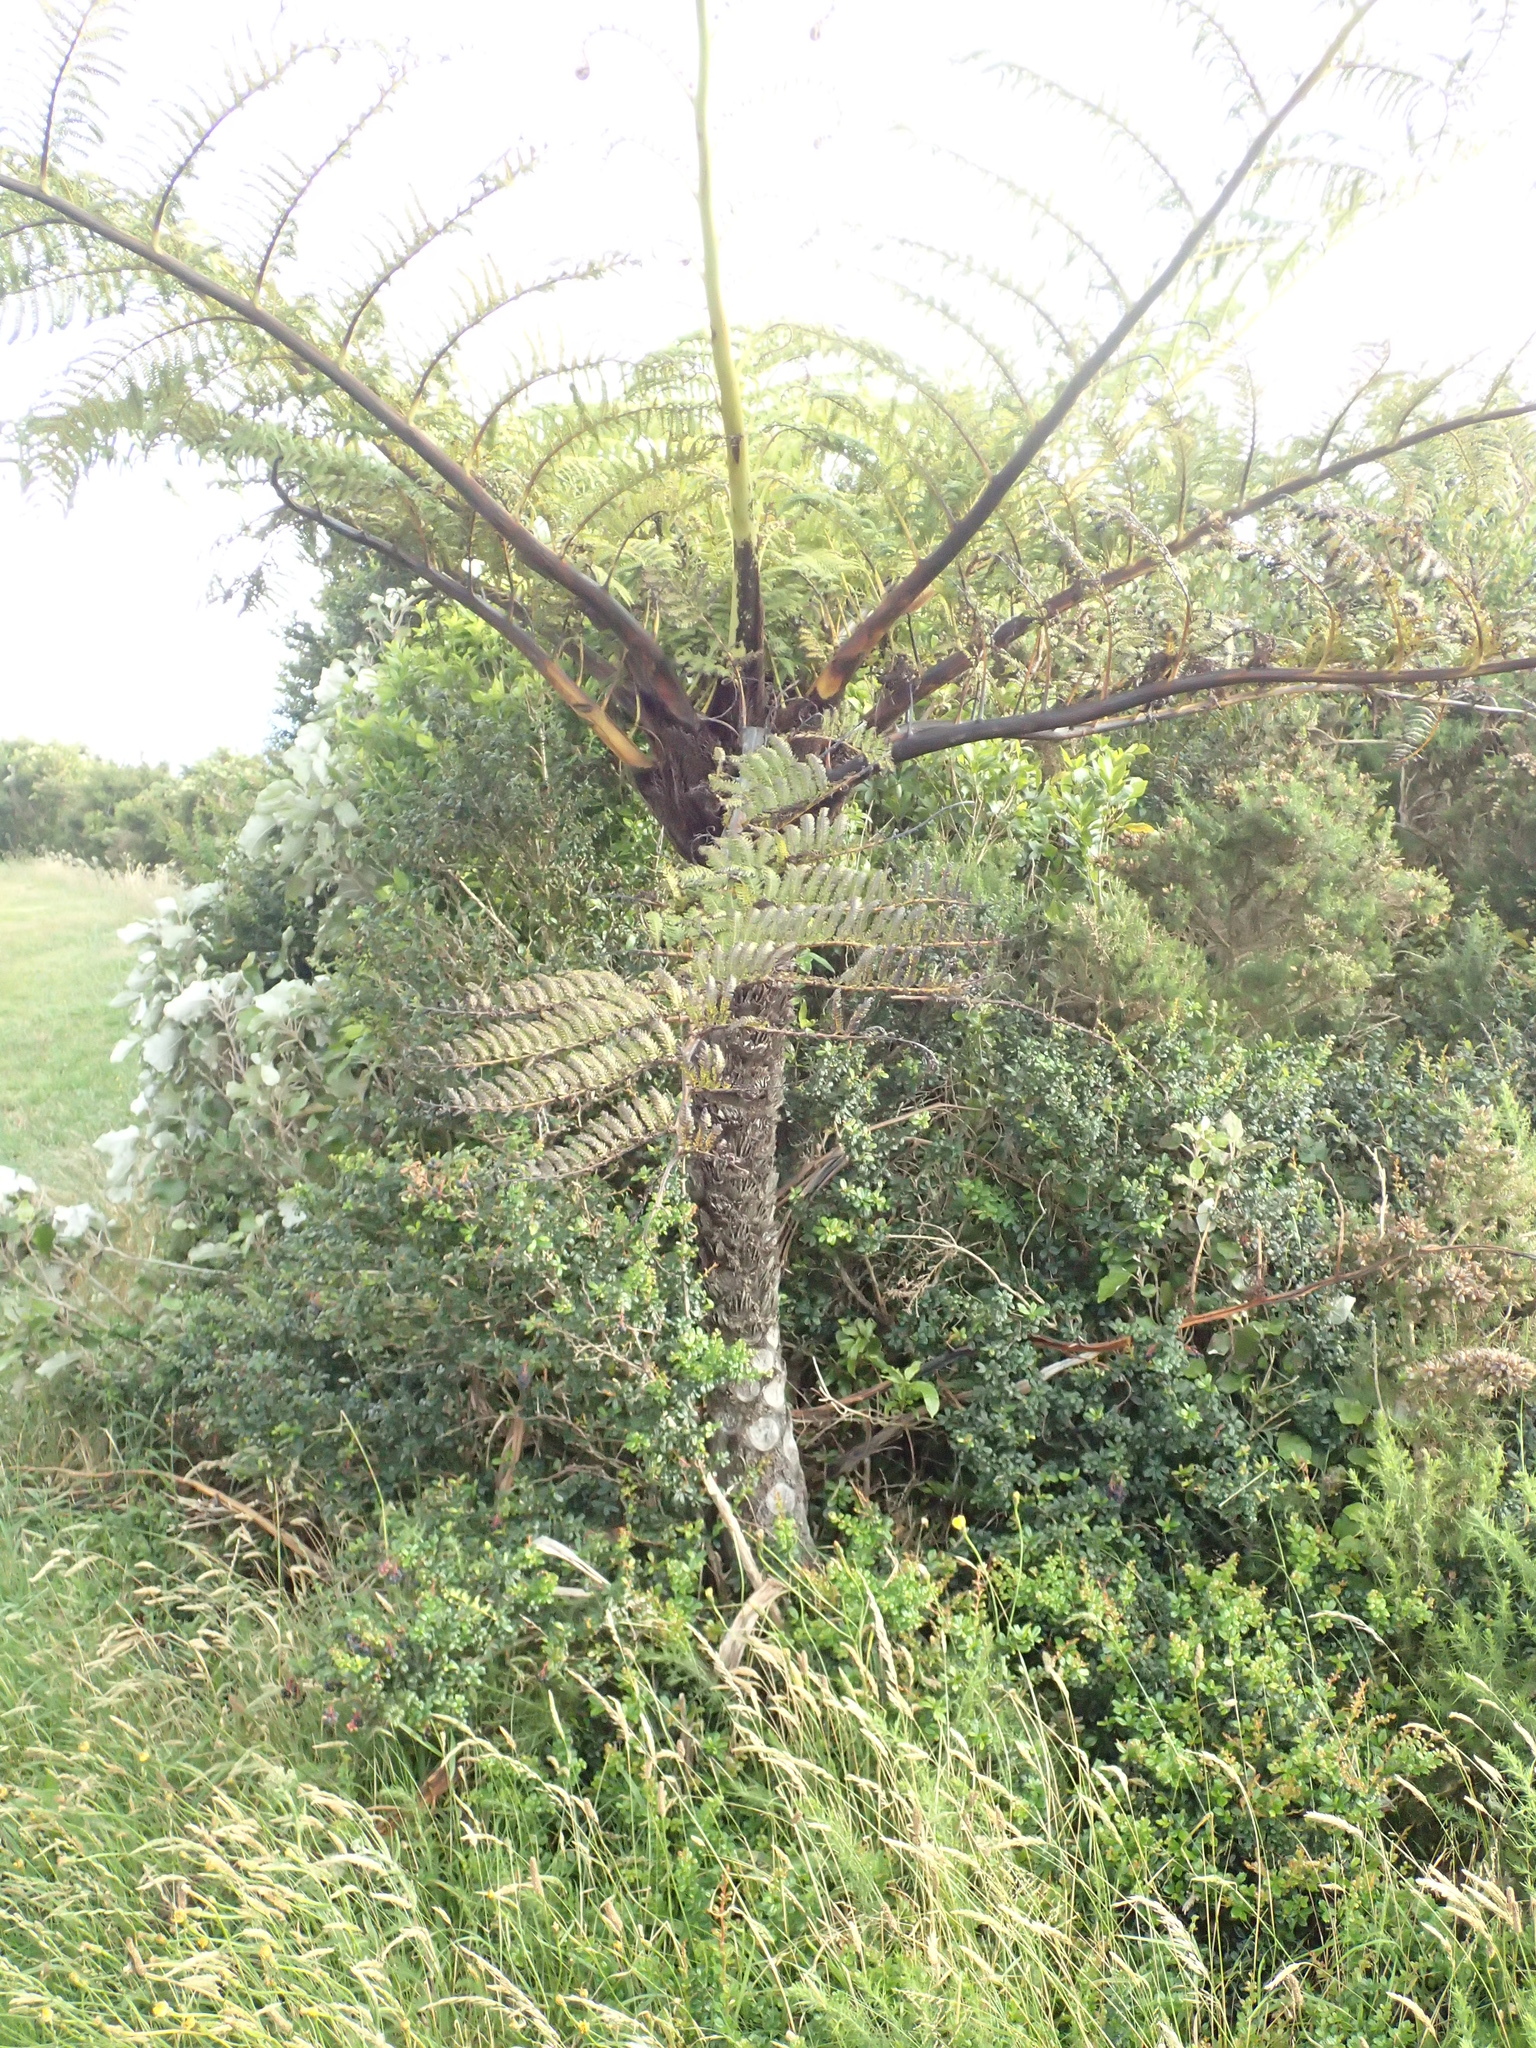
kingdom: Plantae
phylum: Tracheophyta
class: Polypodiopsida
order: Cyatheales
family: Cyatheaceae
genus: Sphaeropteris
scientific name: Sphaeropteris medullaris
